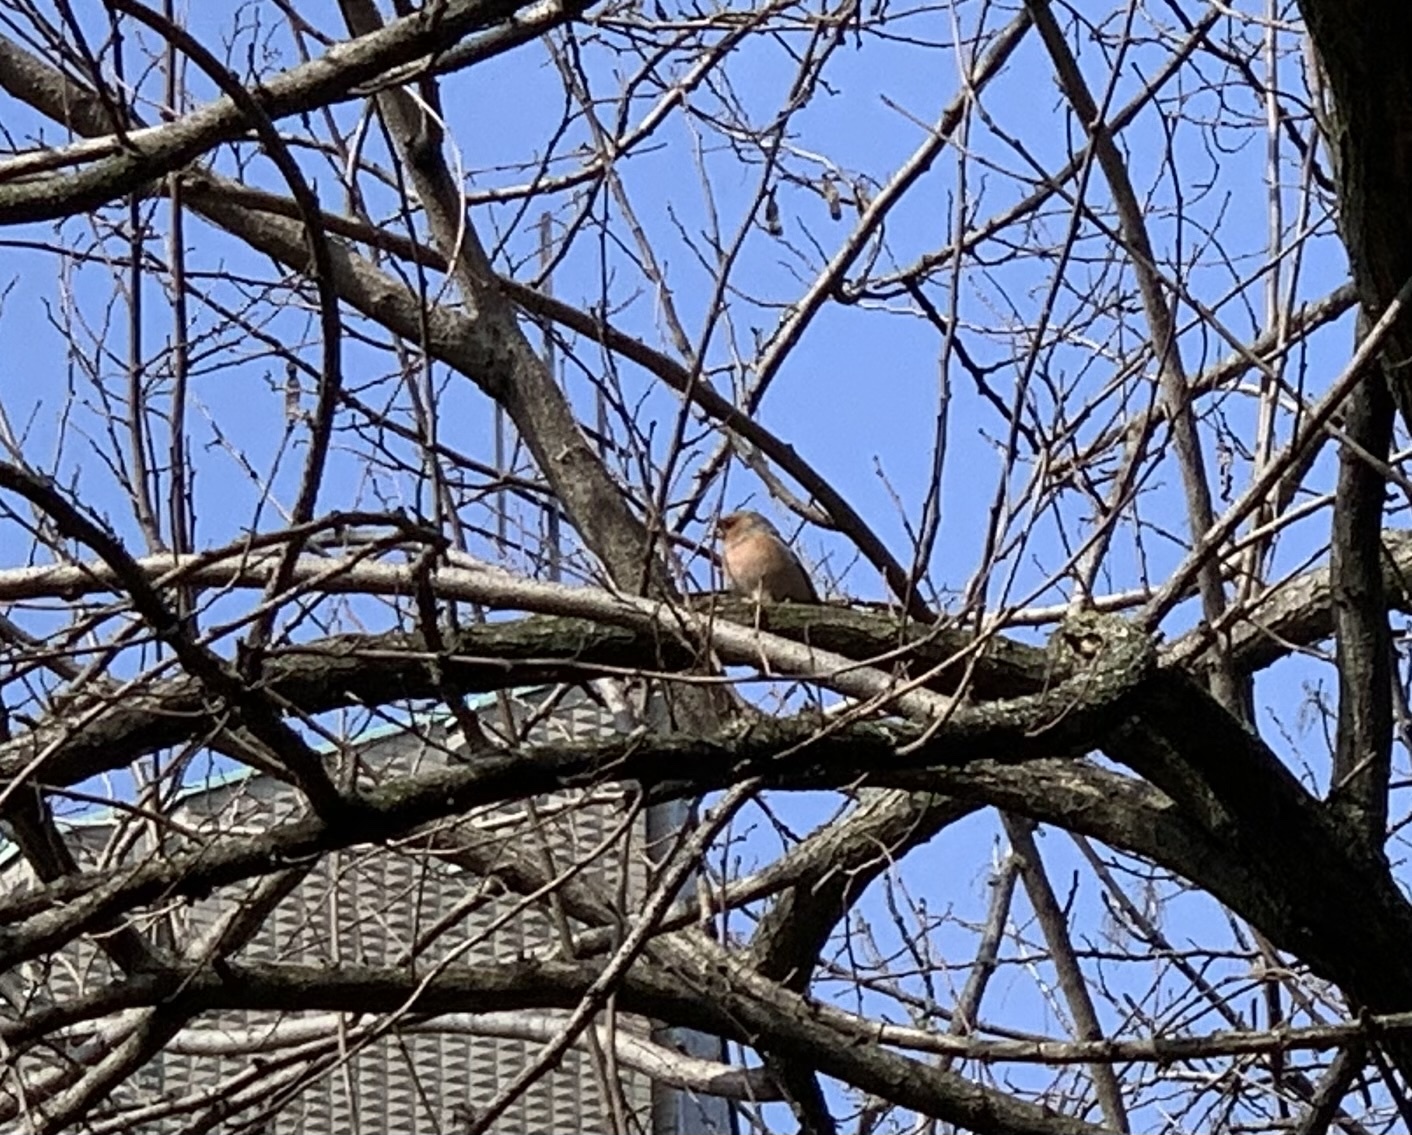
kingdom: Animalia
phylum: Chordata
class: Aves
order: Passeriformes
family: Fringillidae
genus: Fringilla
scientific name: Fringilla coelebs
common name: Common chaffinch
